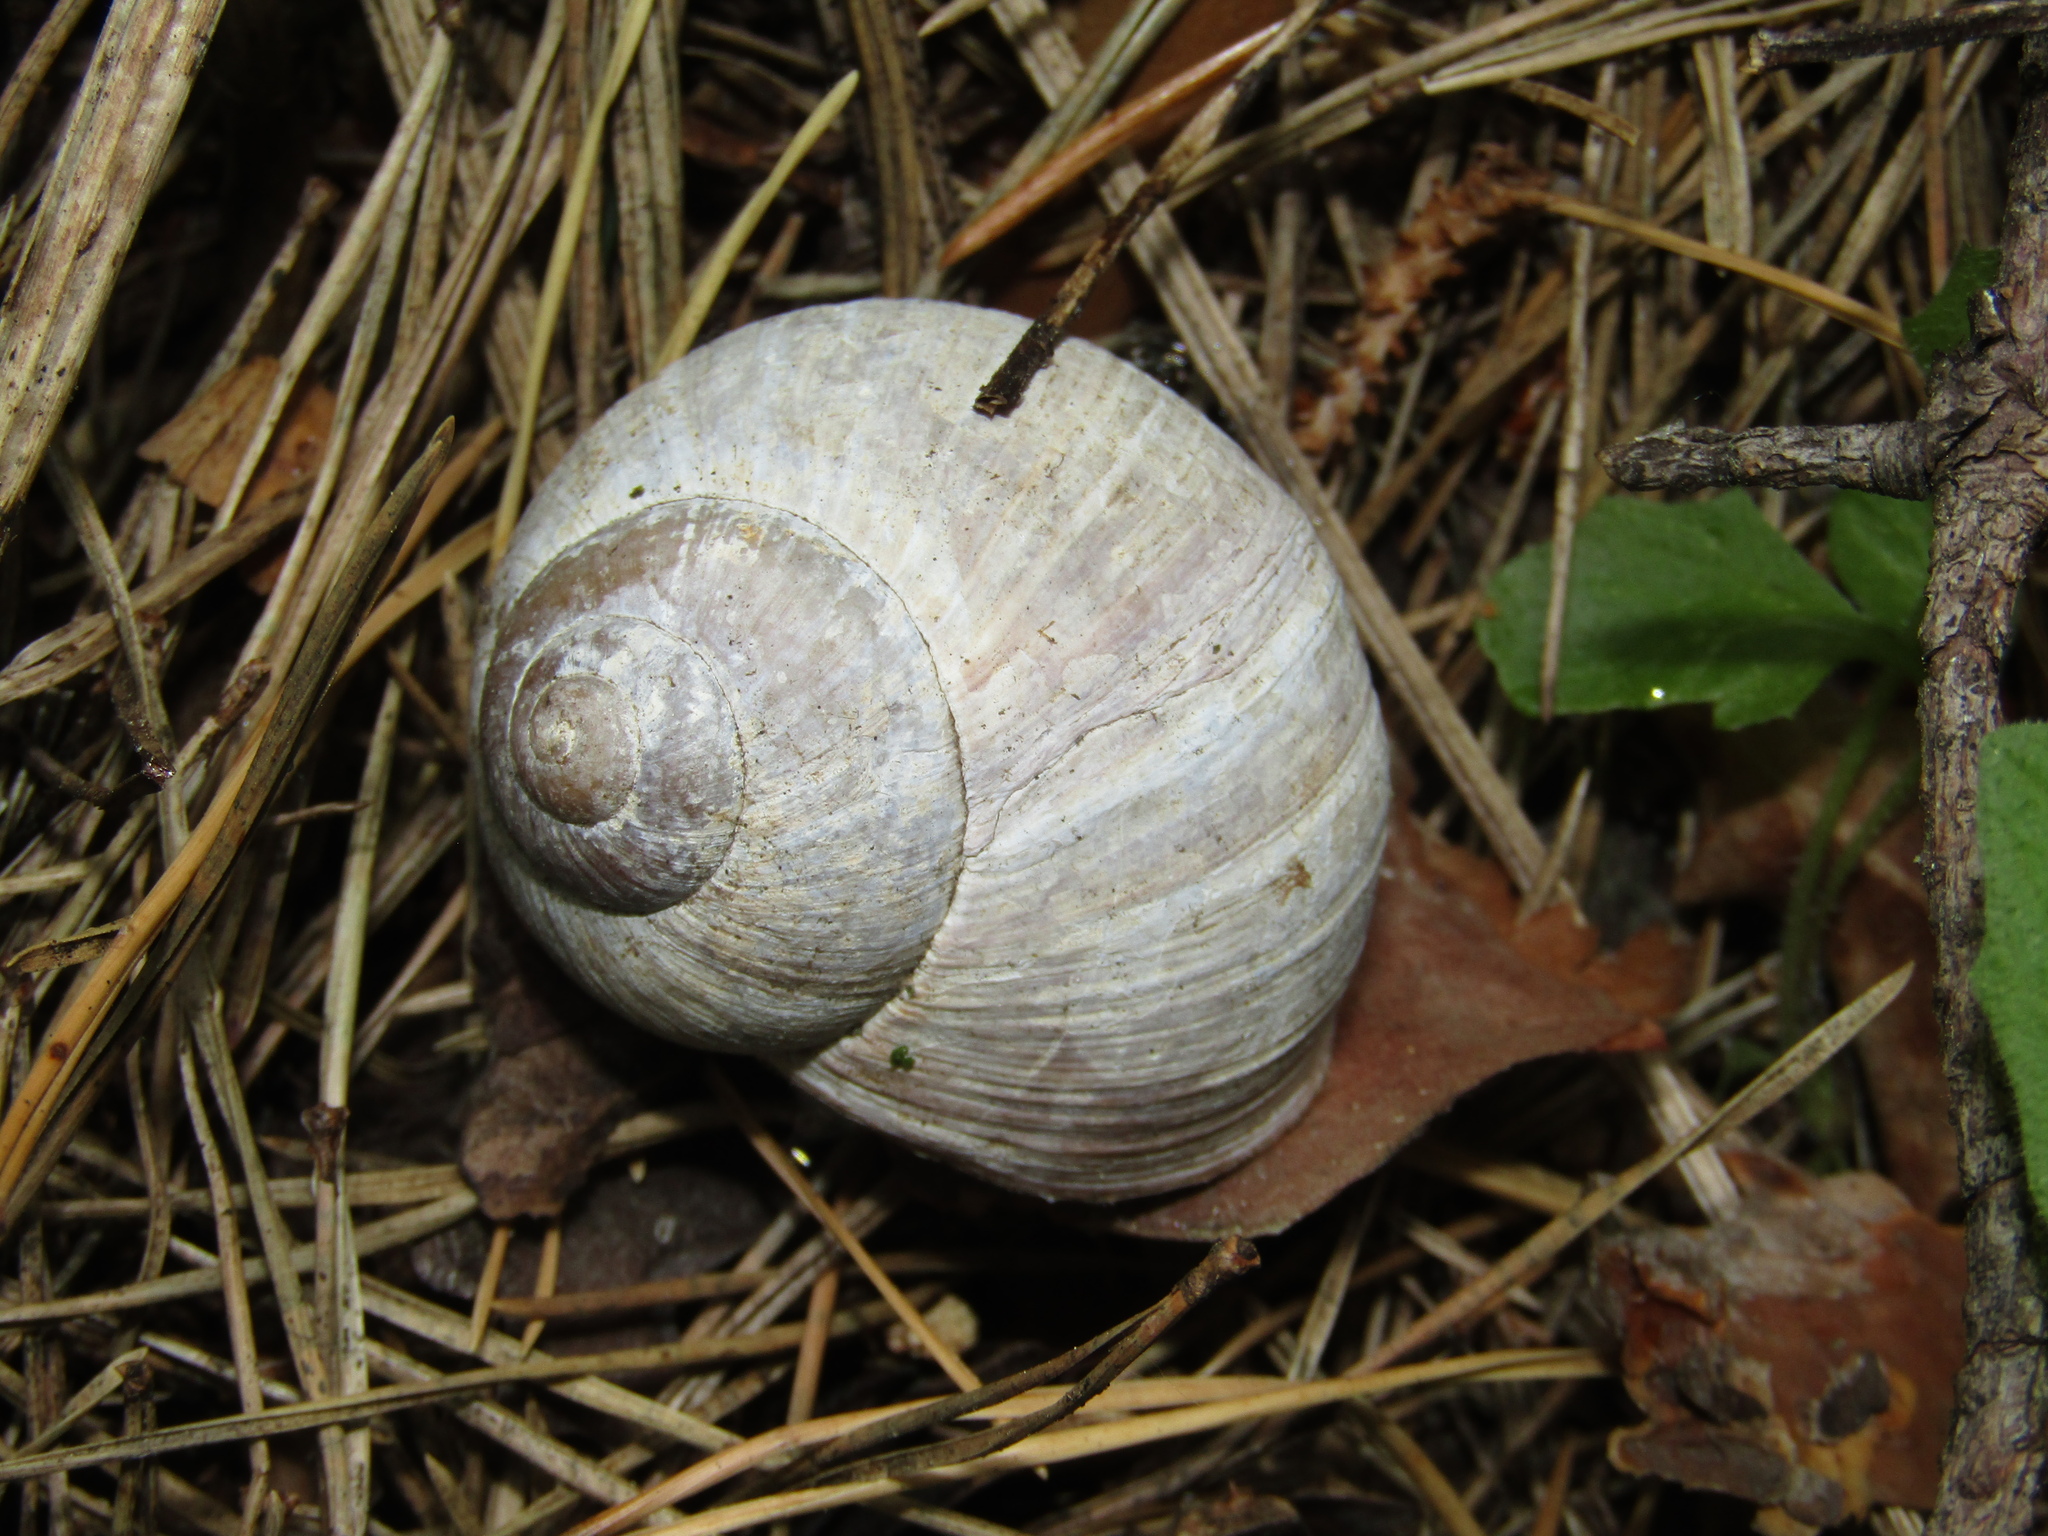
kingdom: Animalia
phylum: Mollusca
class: Gastropoda
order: Stylommatophora
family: Helicidae
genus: Helix
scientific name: Helix pomatia
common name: Roman snail
